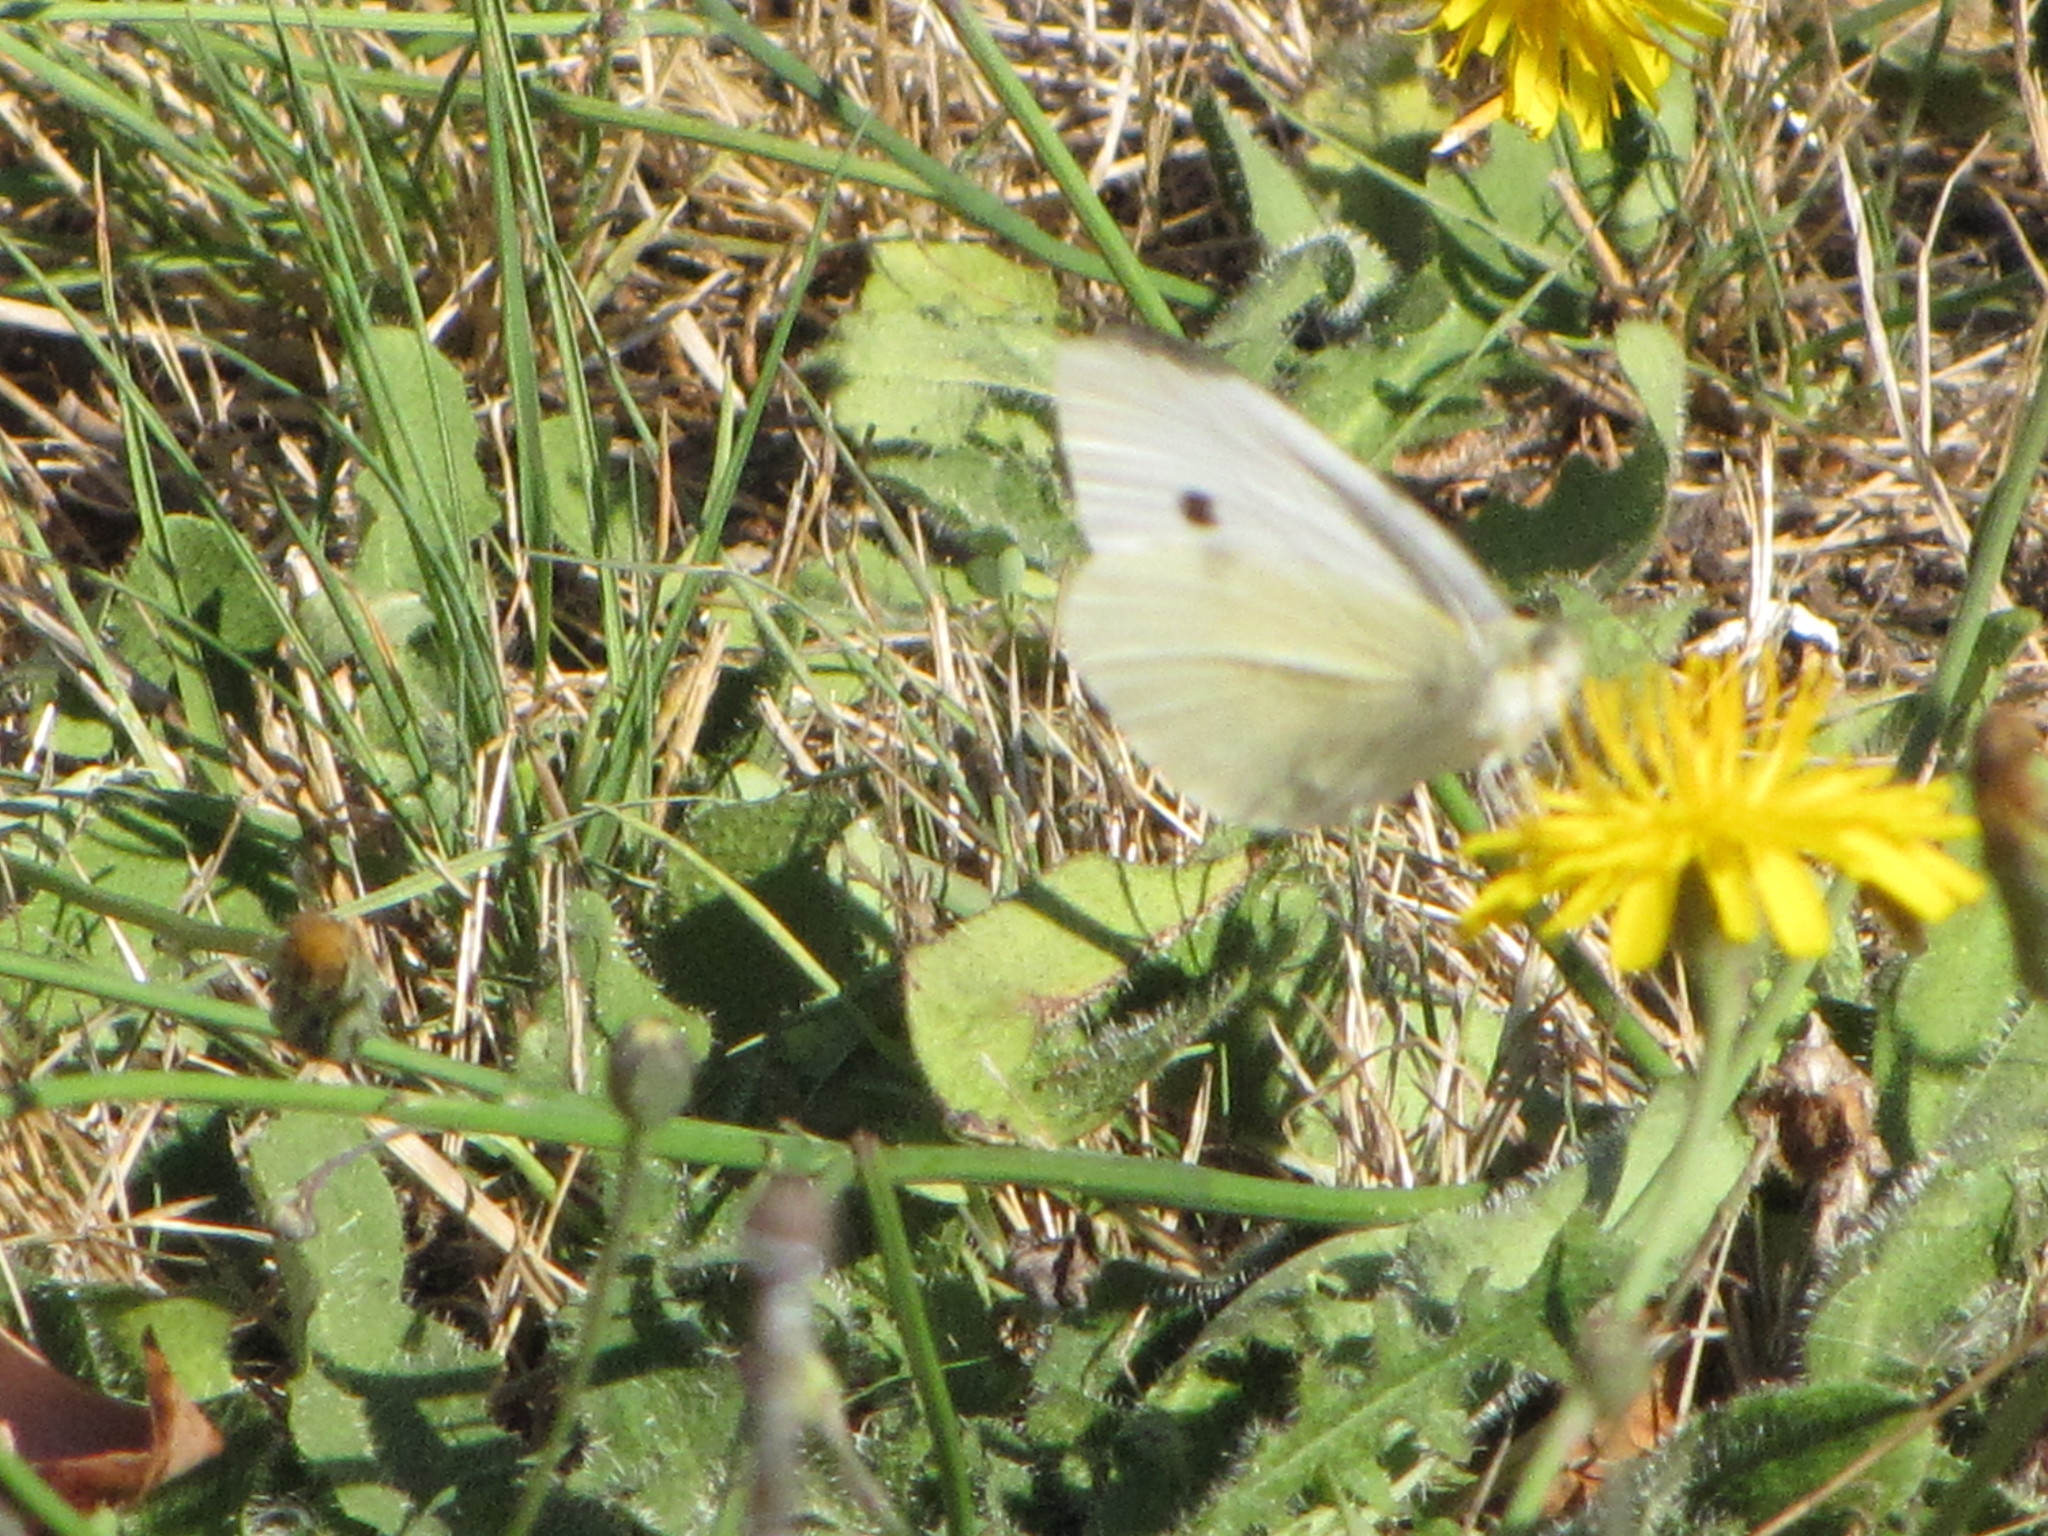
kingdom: Animalia
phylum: Arthropoda
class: Insecta
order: Lepidoptera
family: Pieridae
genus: Pieris
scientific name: Pieris rapae
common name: Small white
